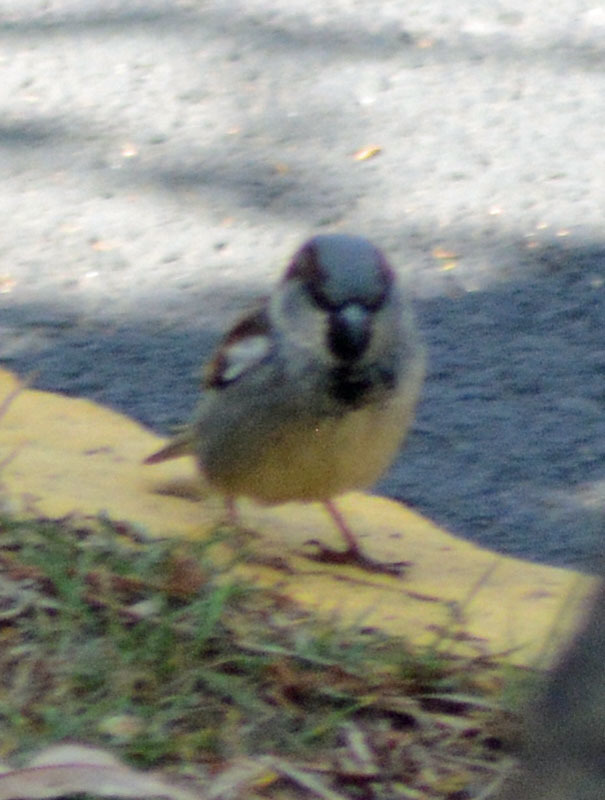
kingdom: Animalia
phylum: Chordata
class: Aves
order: Passeriformes
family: Passeridae
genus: Passer
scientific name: Passer domesticus
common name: House sparrow
